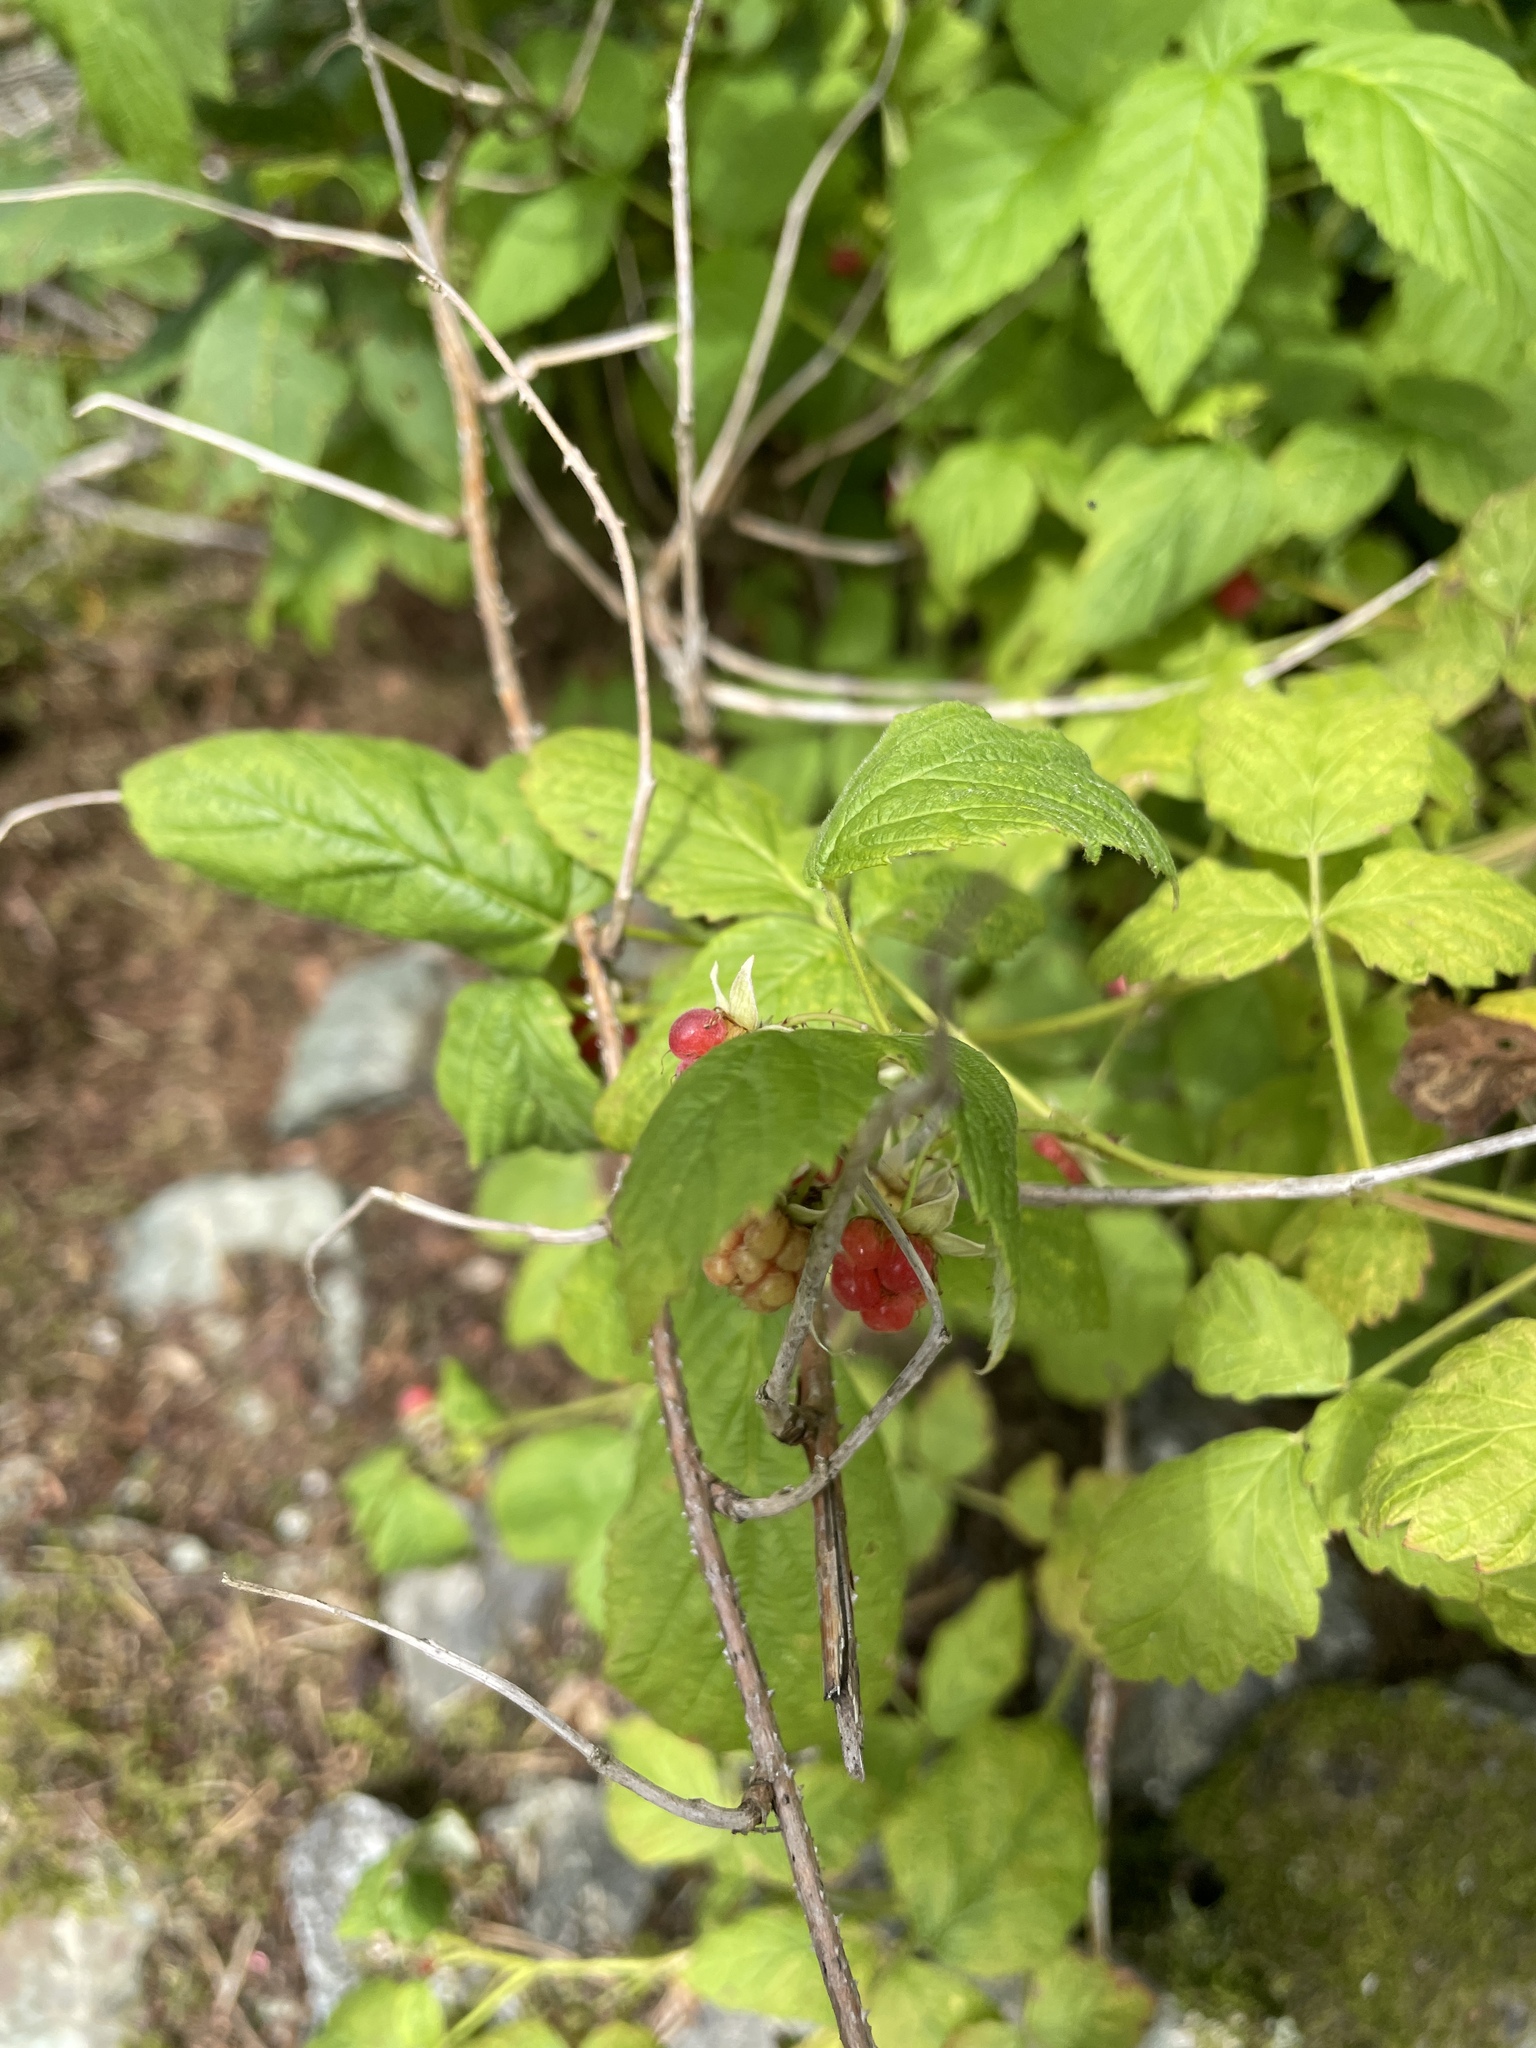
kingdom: Plantae
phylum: Tracheophyta
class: Magnoliopsida
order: Rosales
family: Rosaceae
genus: Rubus
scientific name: Rubus idaeus
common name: Raspberry
